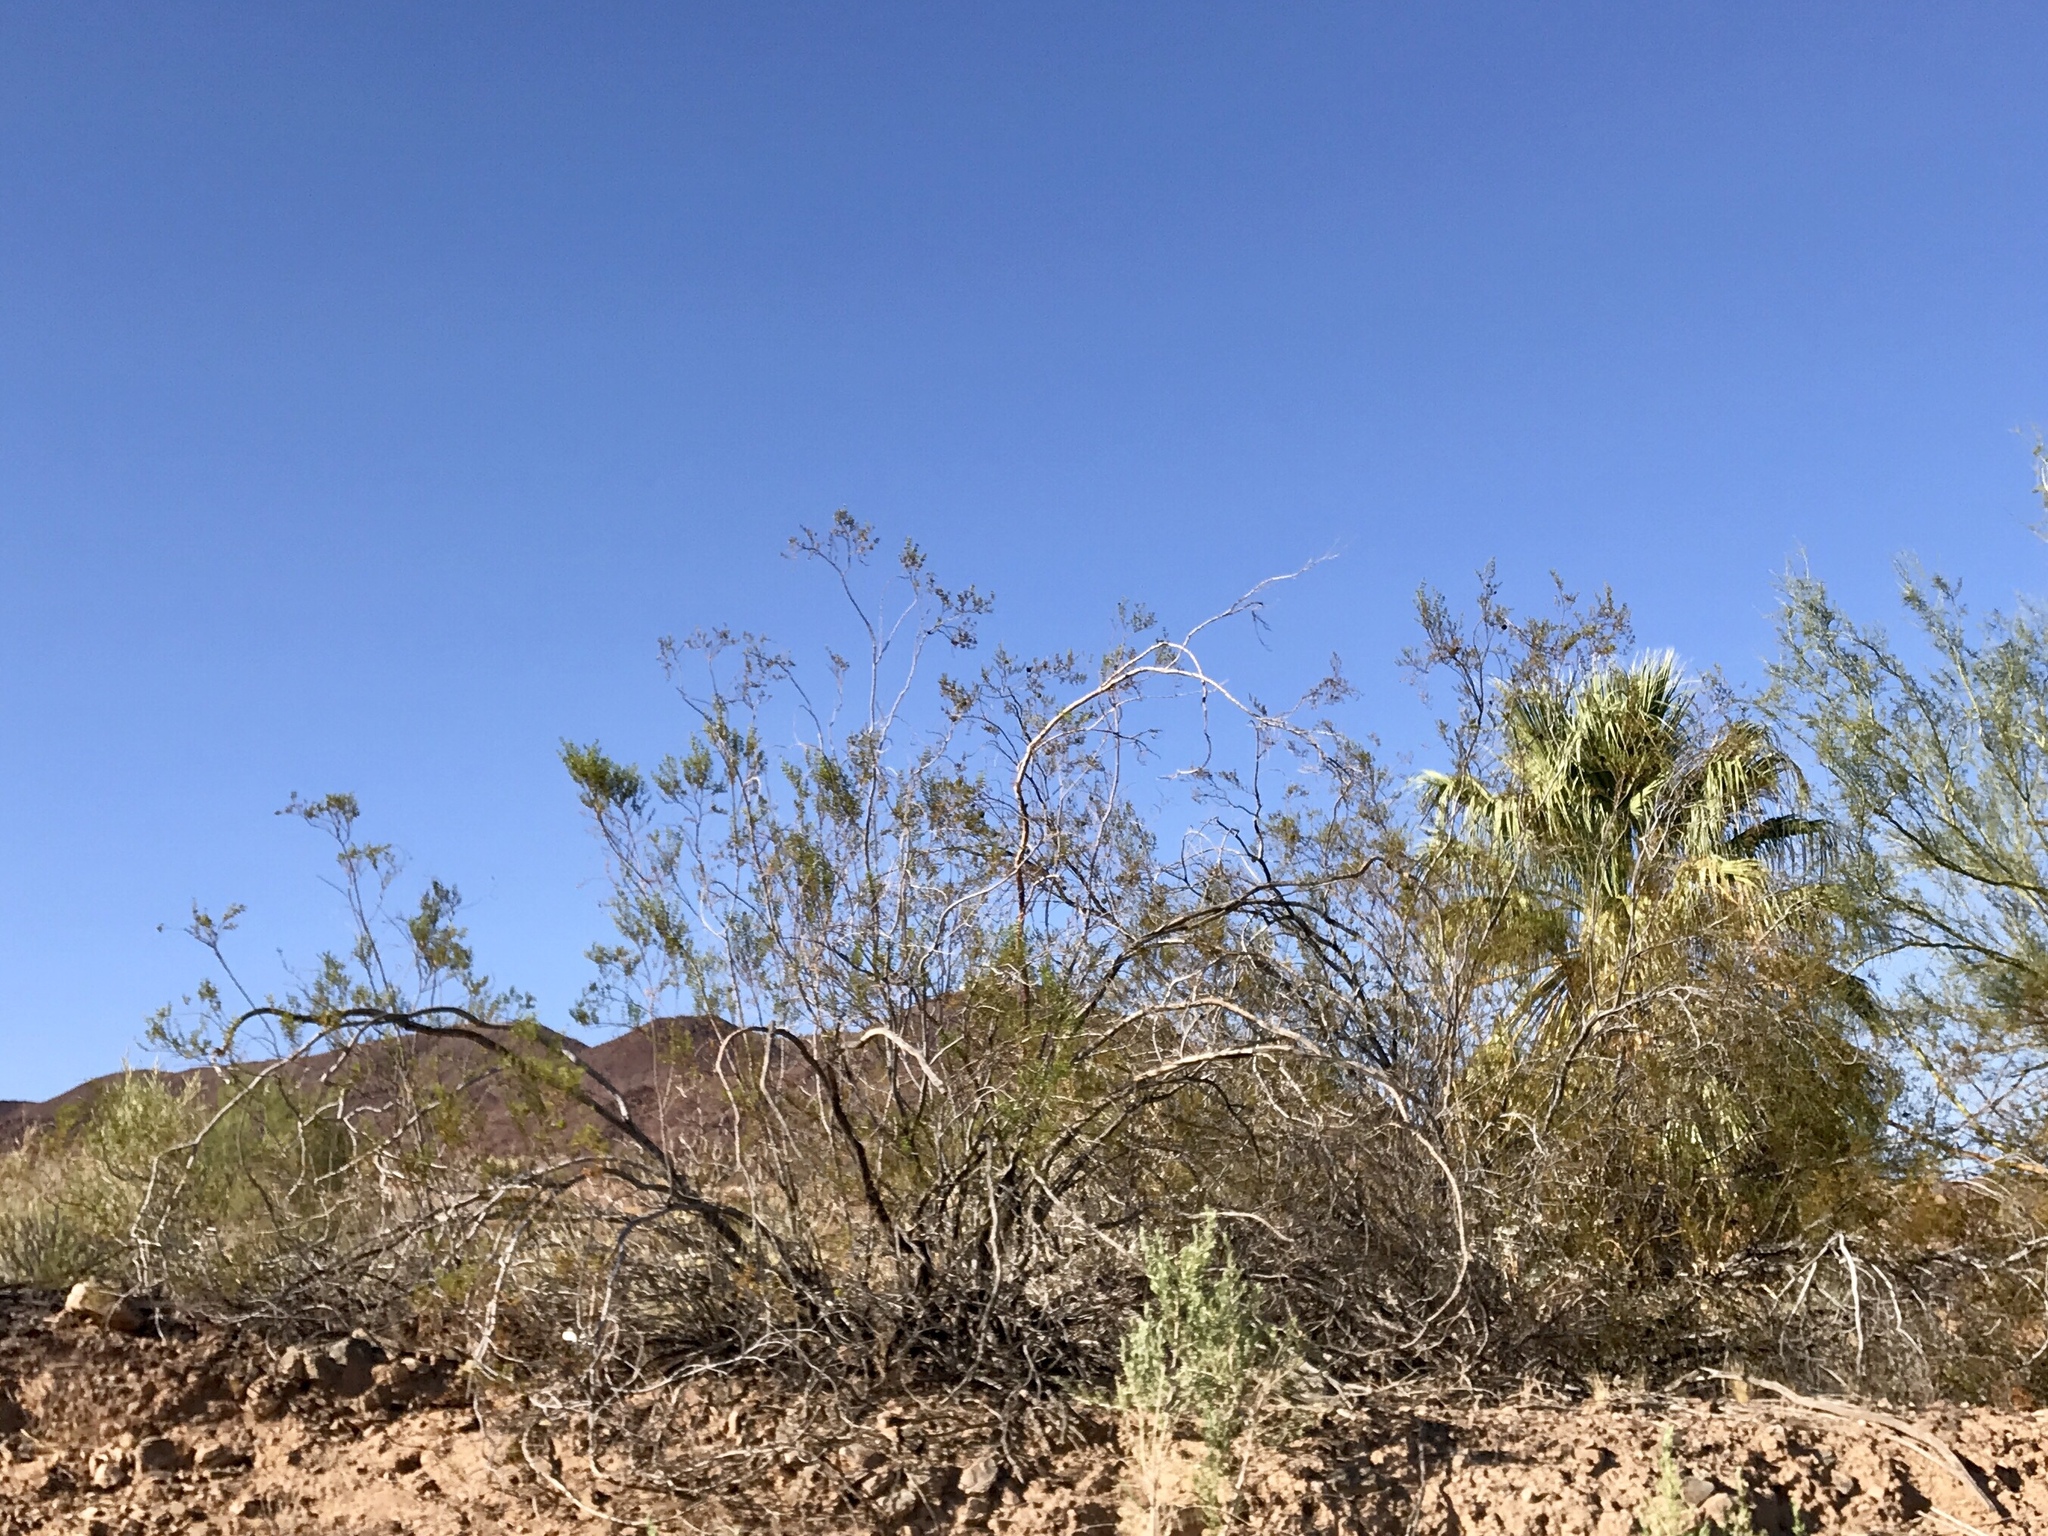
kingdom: Plantae
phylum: Tracheophyta
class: Magnoliopsida
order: Zygophyllales
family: Zygophyllaceae
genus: Larrea
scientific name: Larrea tridentata
